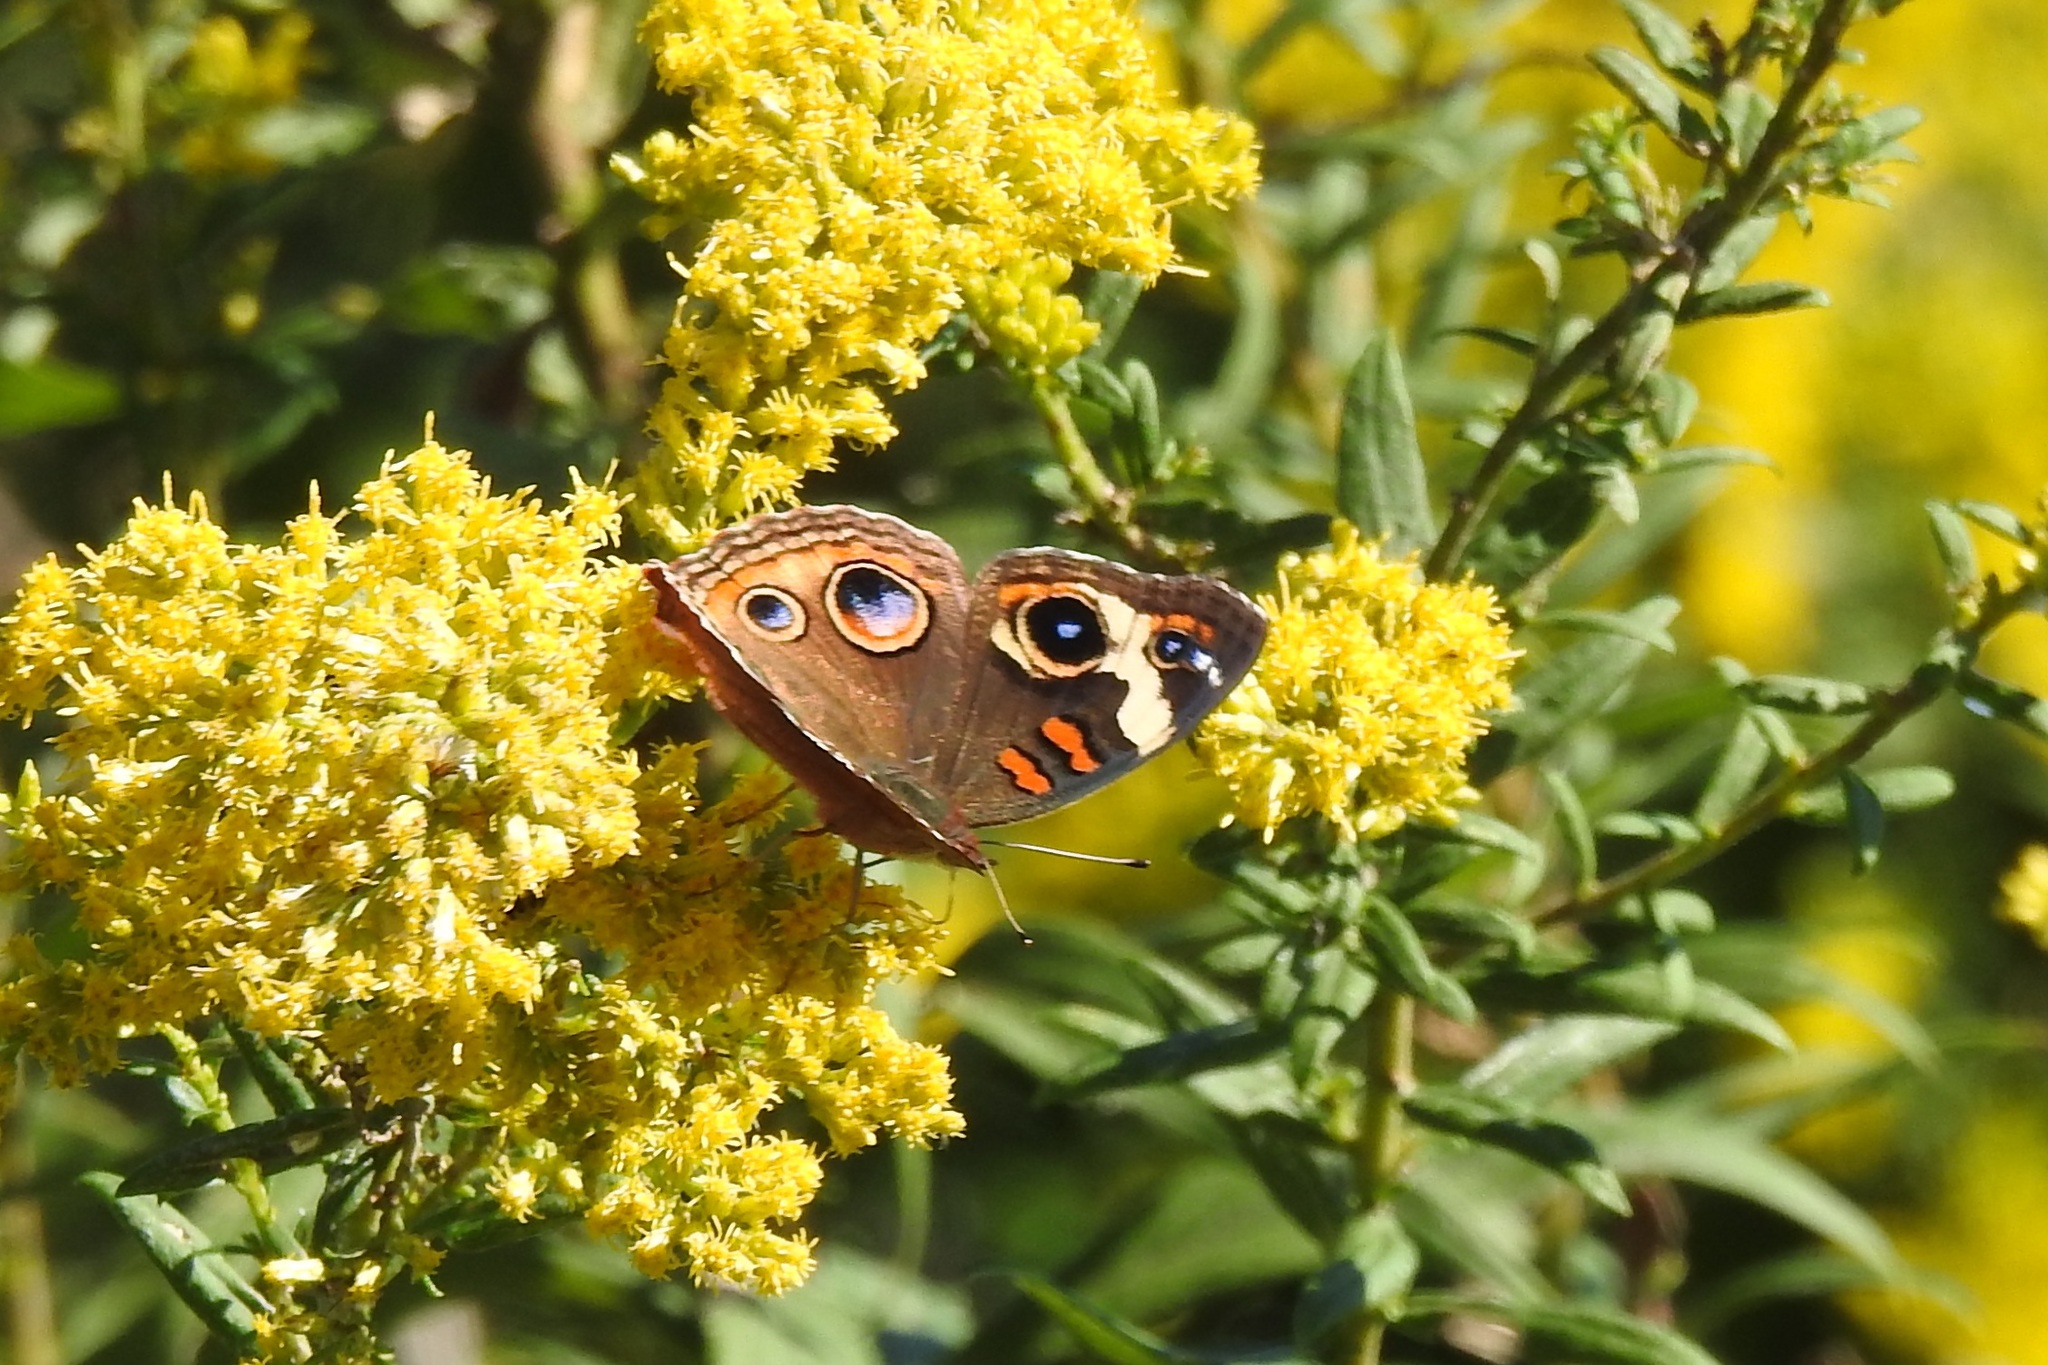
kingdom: Animalia
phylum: Arthropoda
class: Insecta
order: Lepidoptera
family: Nymphalidae
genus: Junonia
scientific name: Junonia coenia
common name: Common buckeye
